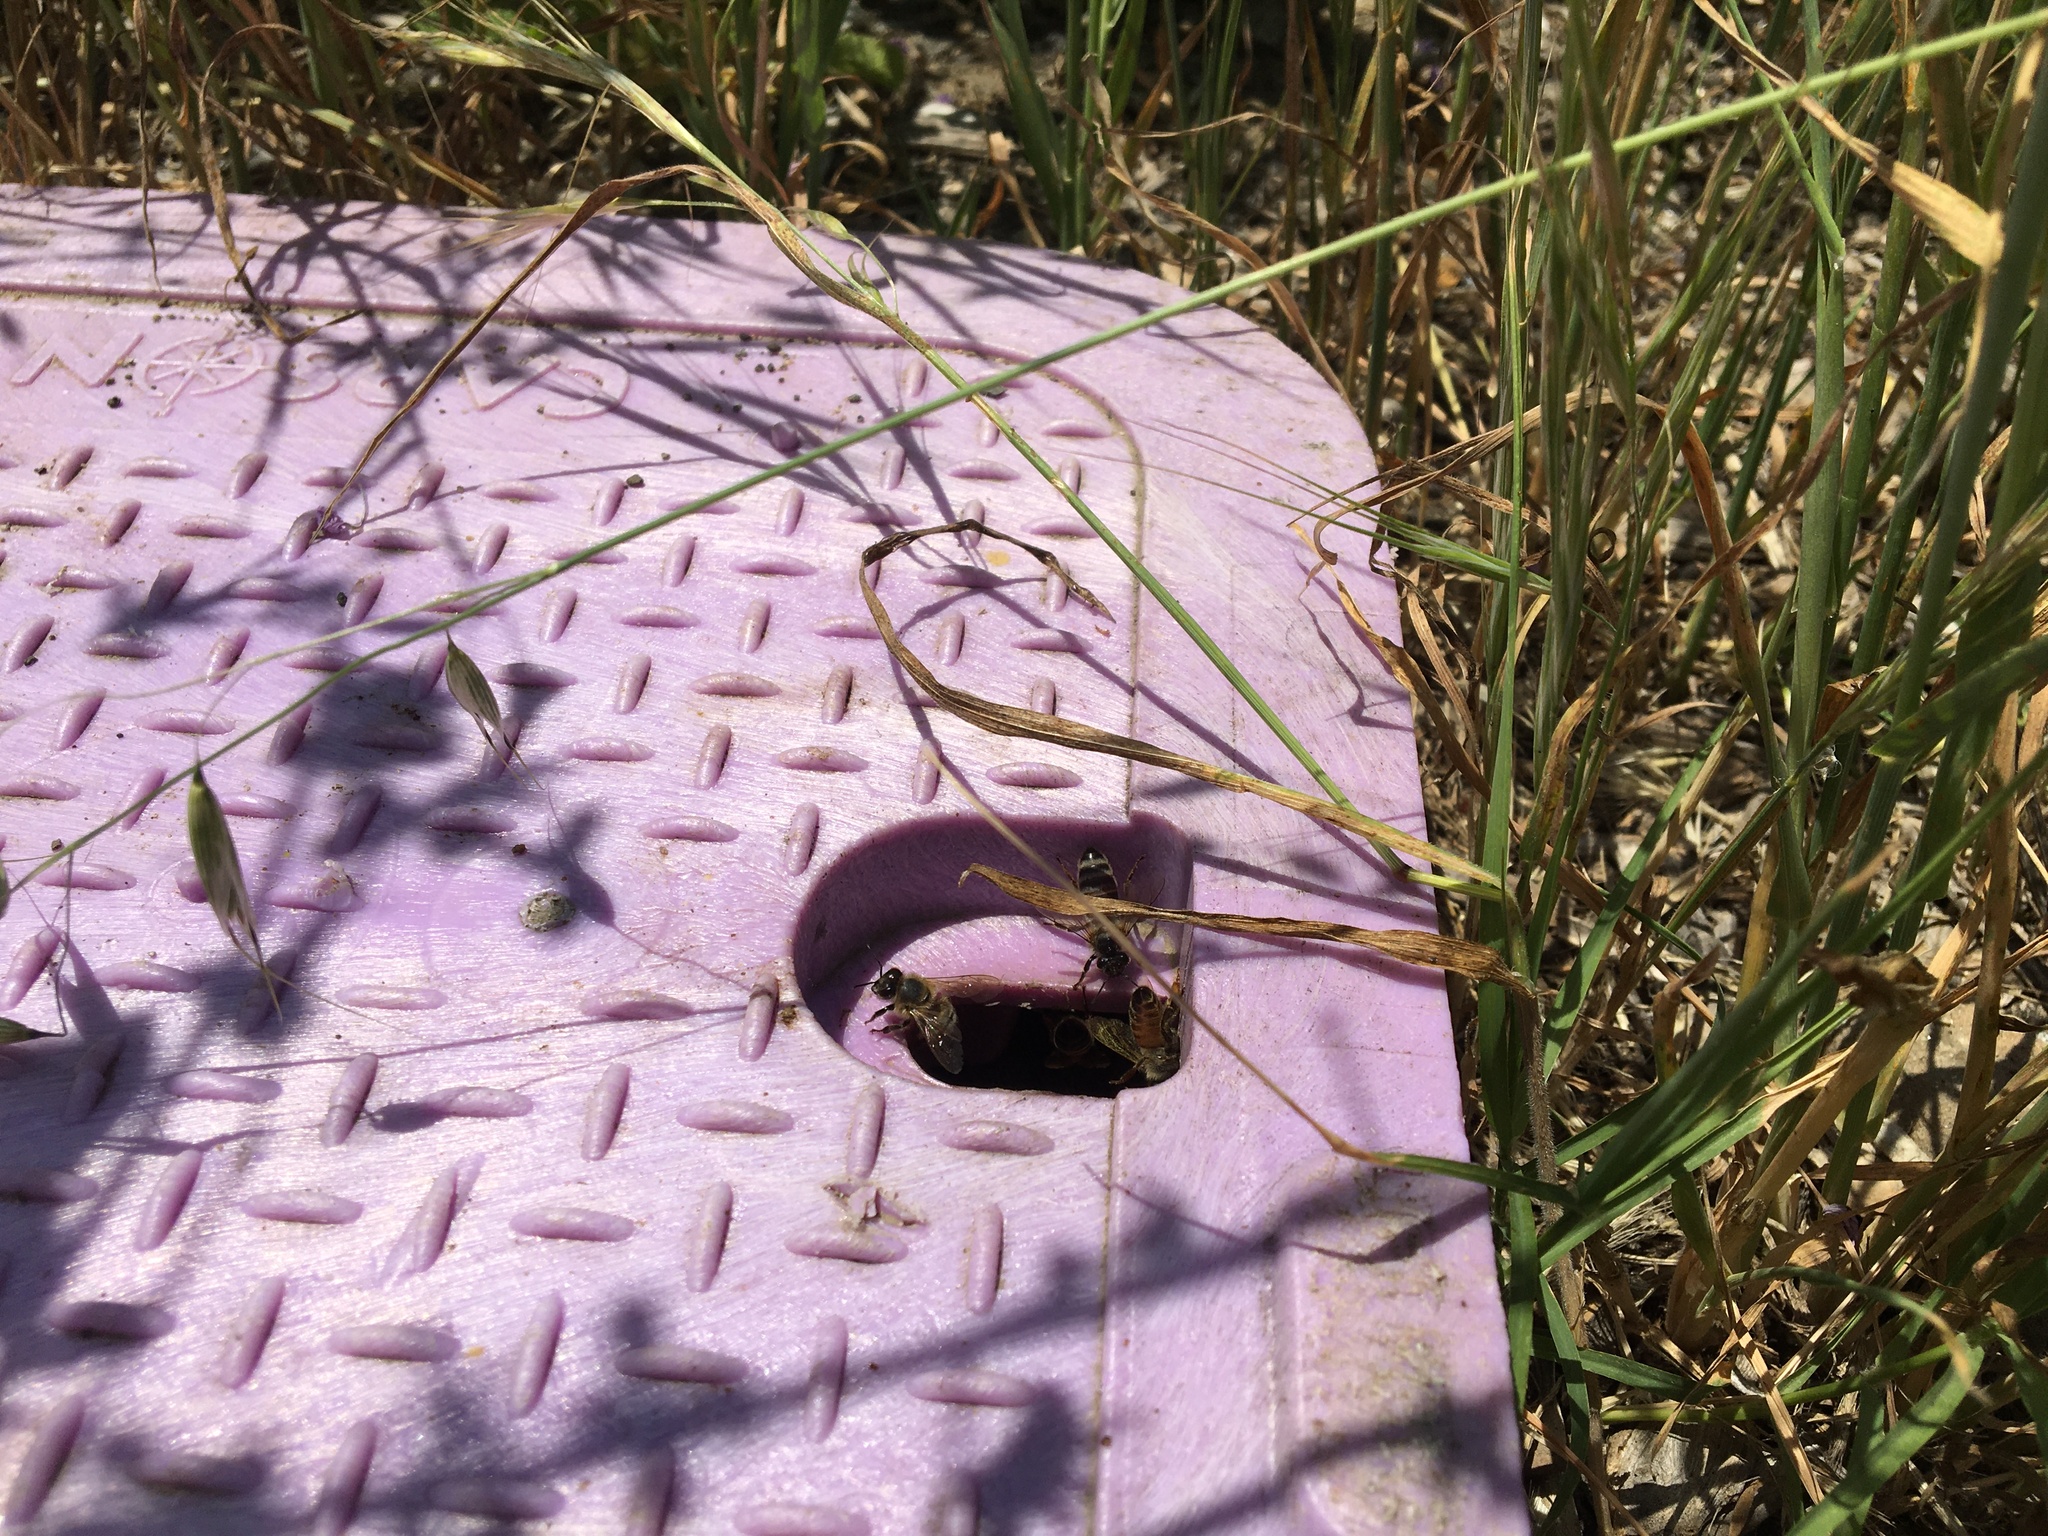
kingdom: Animalia
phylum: Arthropoda
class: Insecta
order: Hymenoptera
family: Apidae
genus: Apis
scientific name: Apis mellifera
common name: Honey bee
